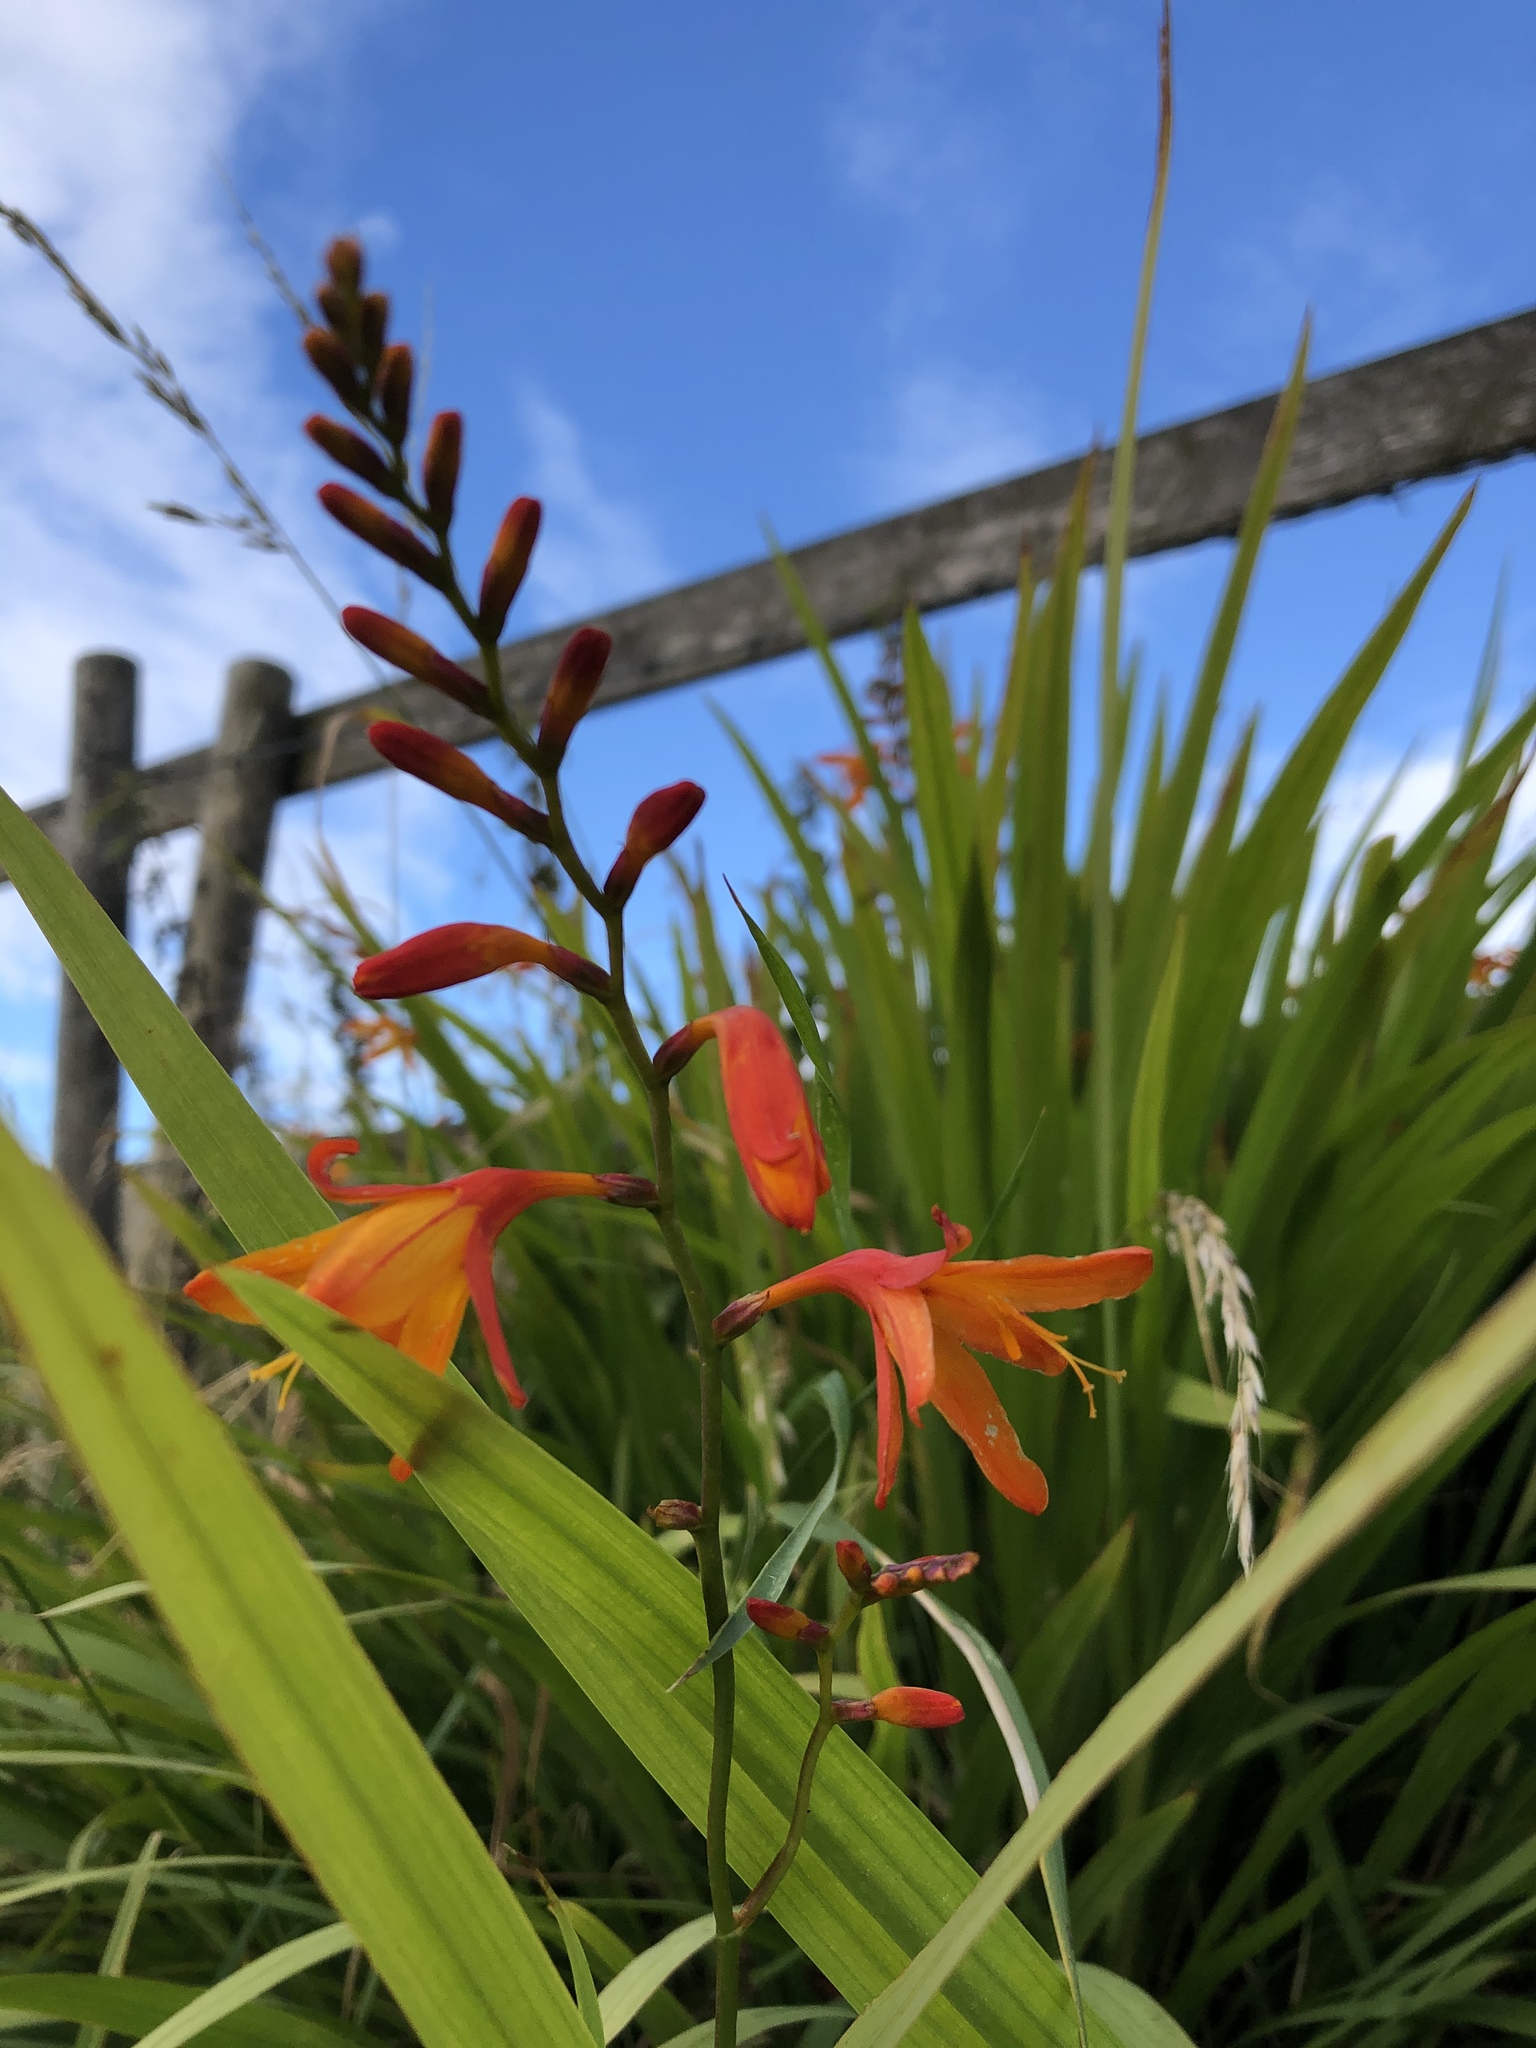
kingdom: Plantae
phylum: Tracheophyta
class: Liliopsida
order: Asparagales
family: Iridaceae
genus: Crocosmia
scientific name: Crocosmia crocosmiiflora
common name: Montbretia
